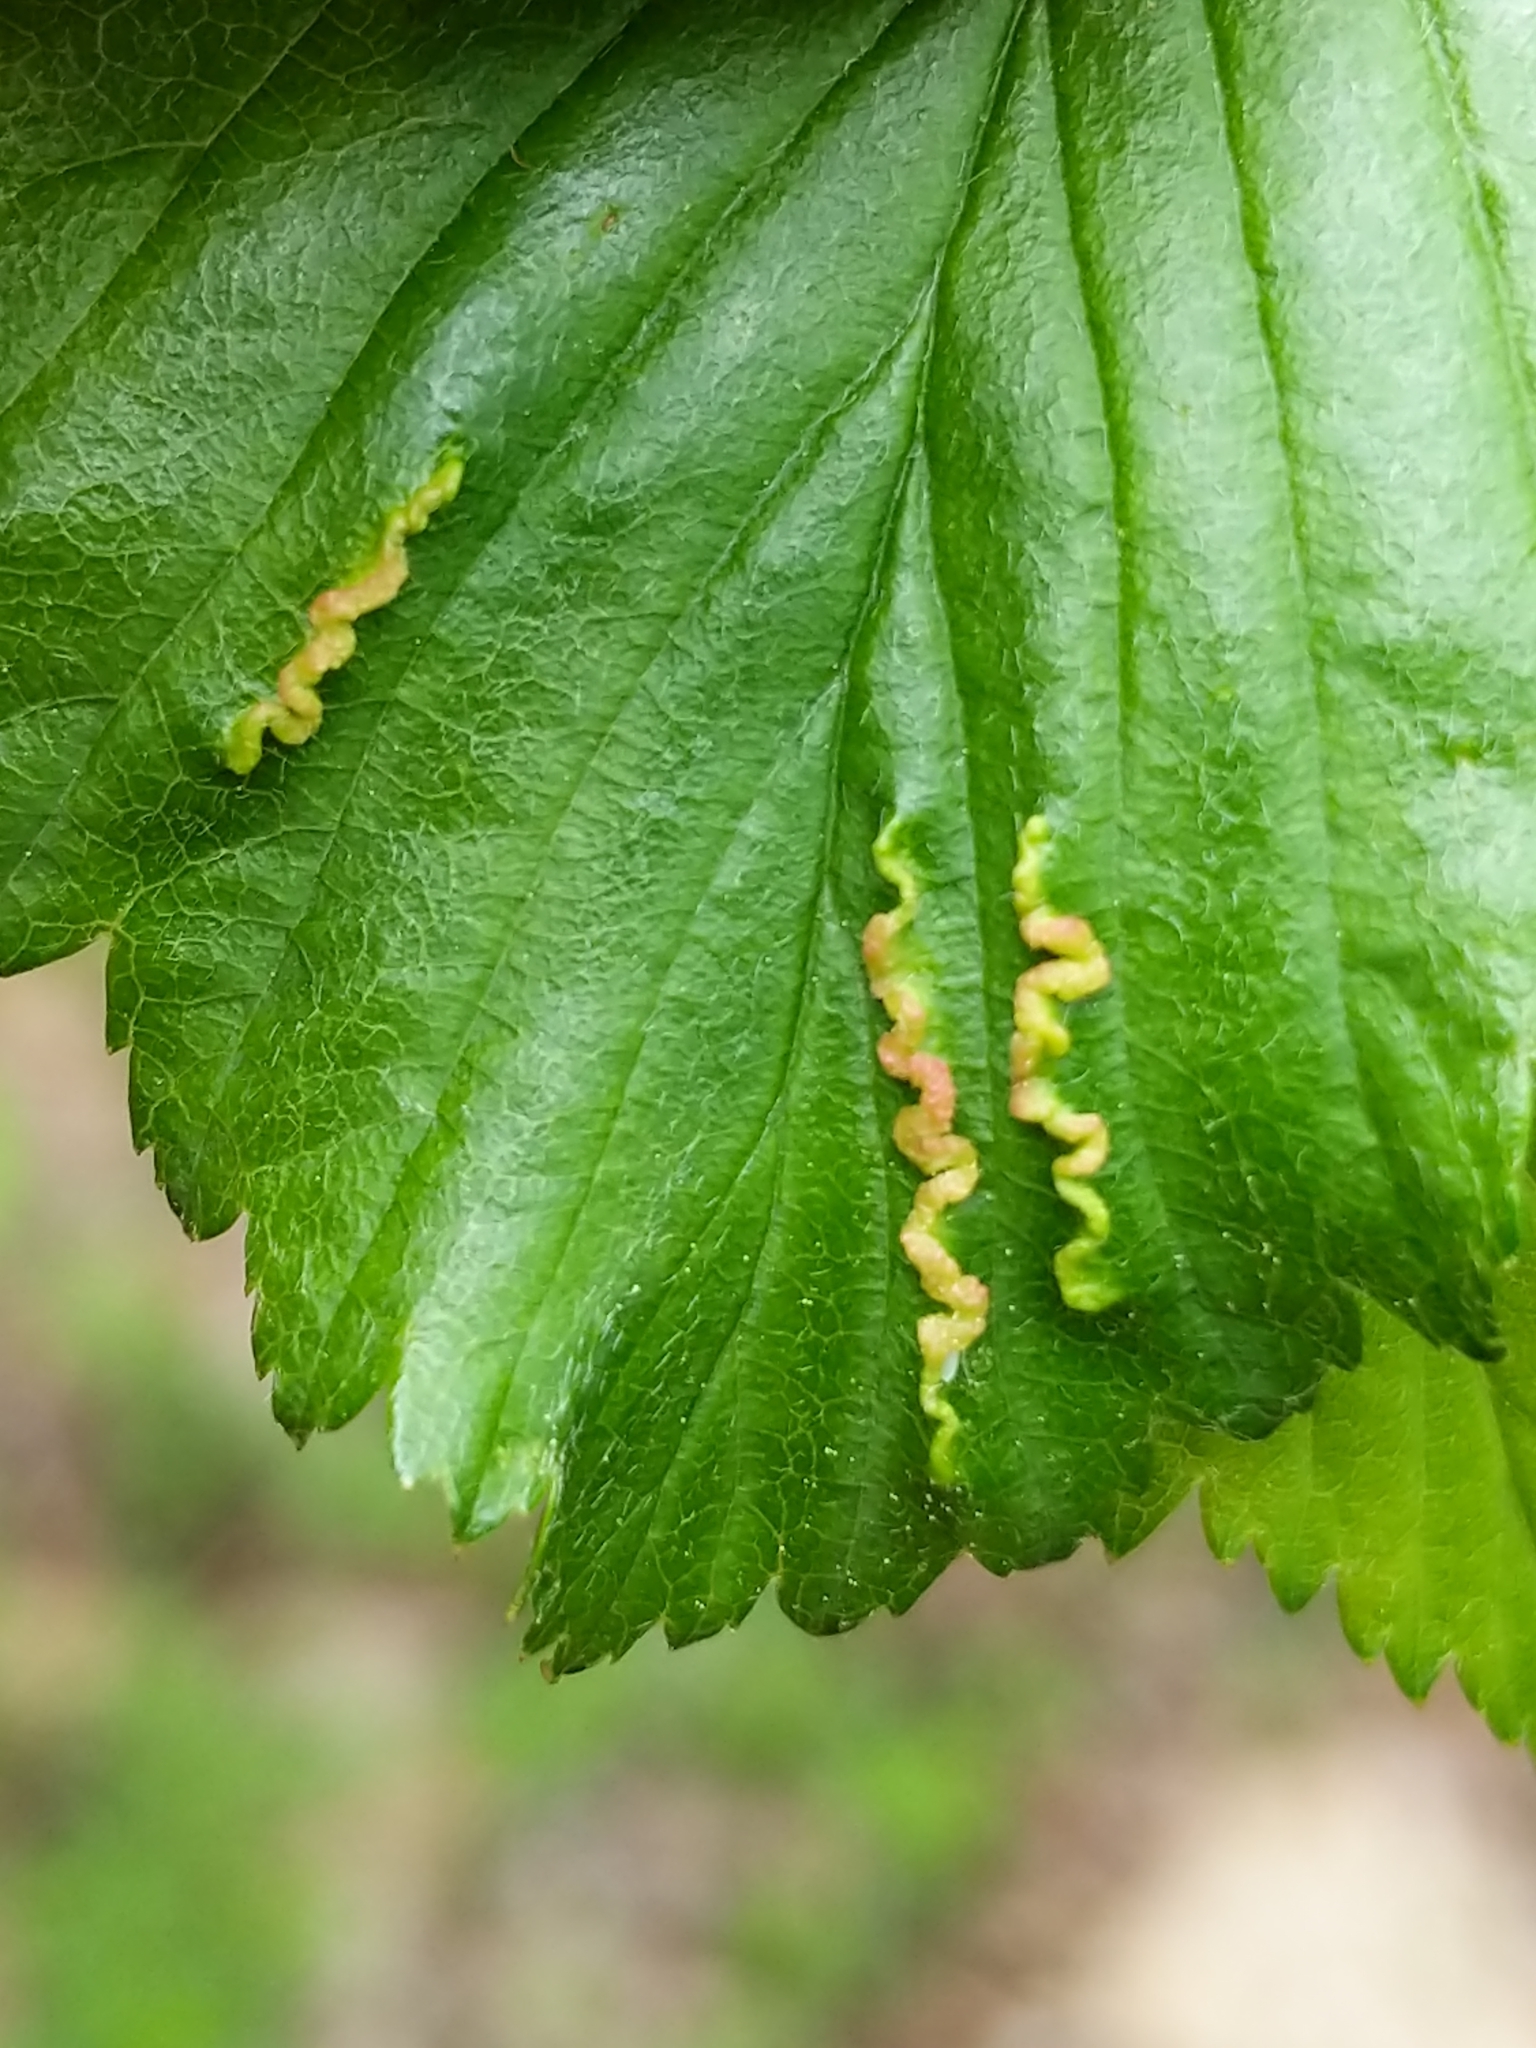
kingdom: Animalia
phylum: Arthropoda
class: Insecta
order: Diptera
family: Cecidomyiidae
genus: Blaesodiplosis
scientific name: Blaesodiplosis crataegifolia
